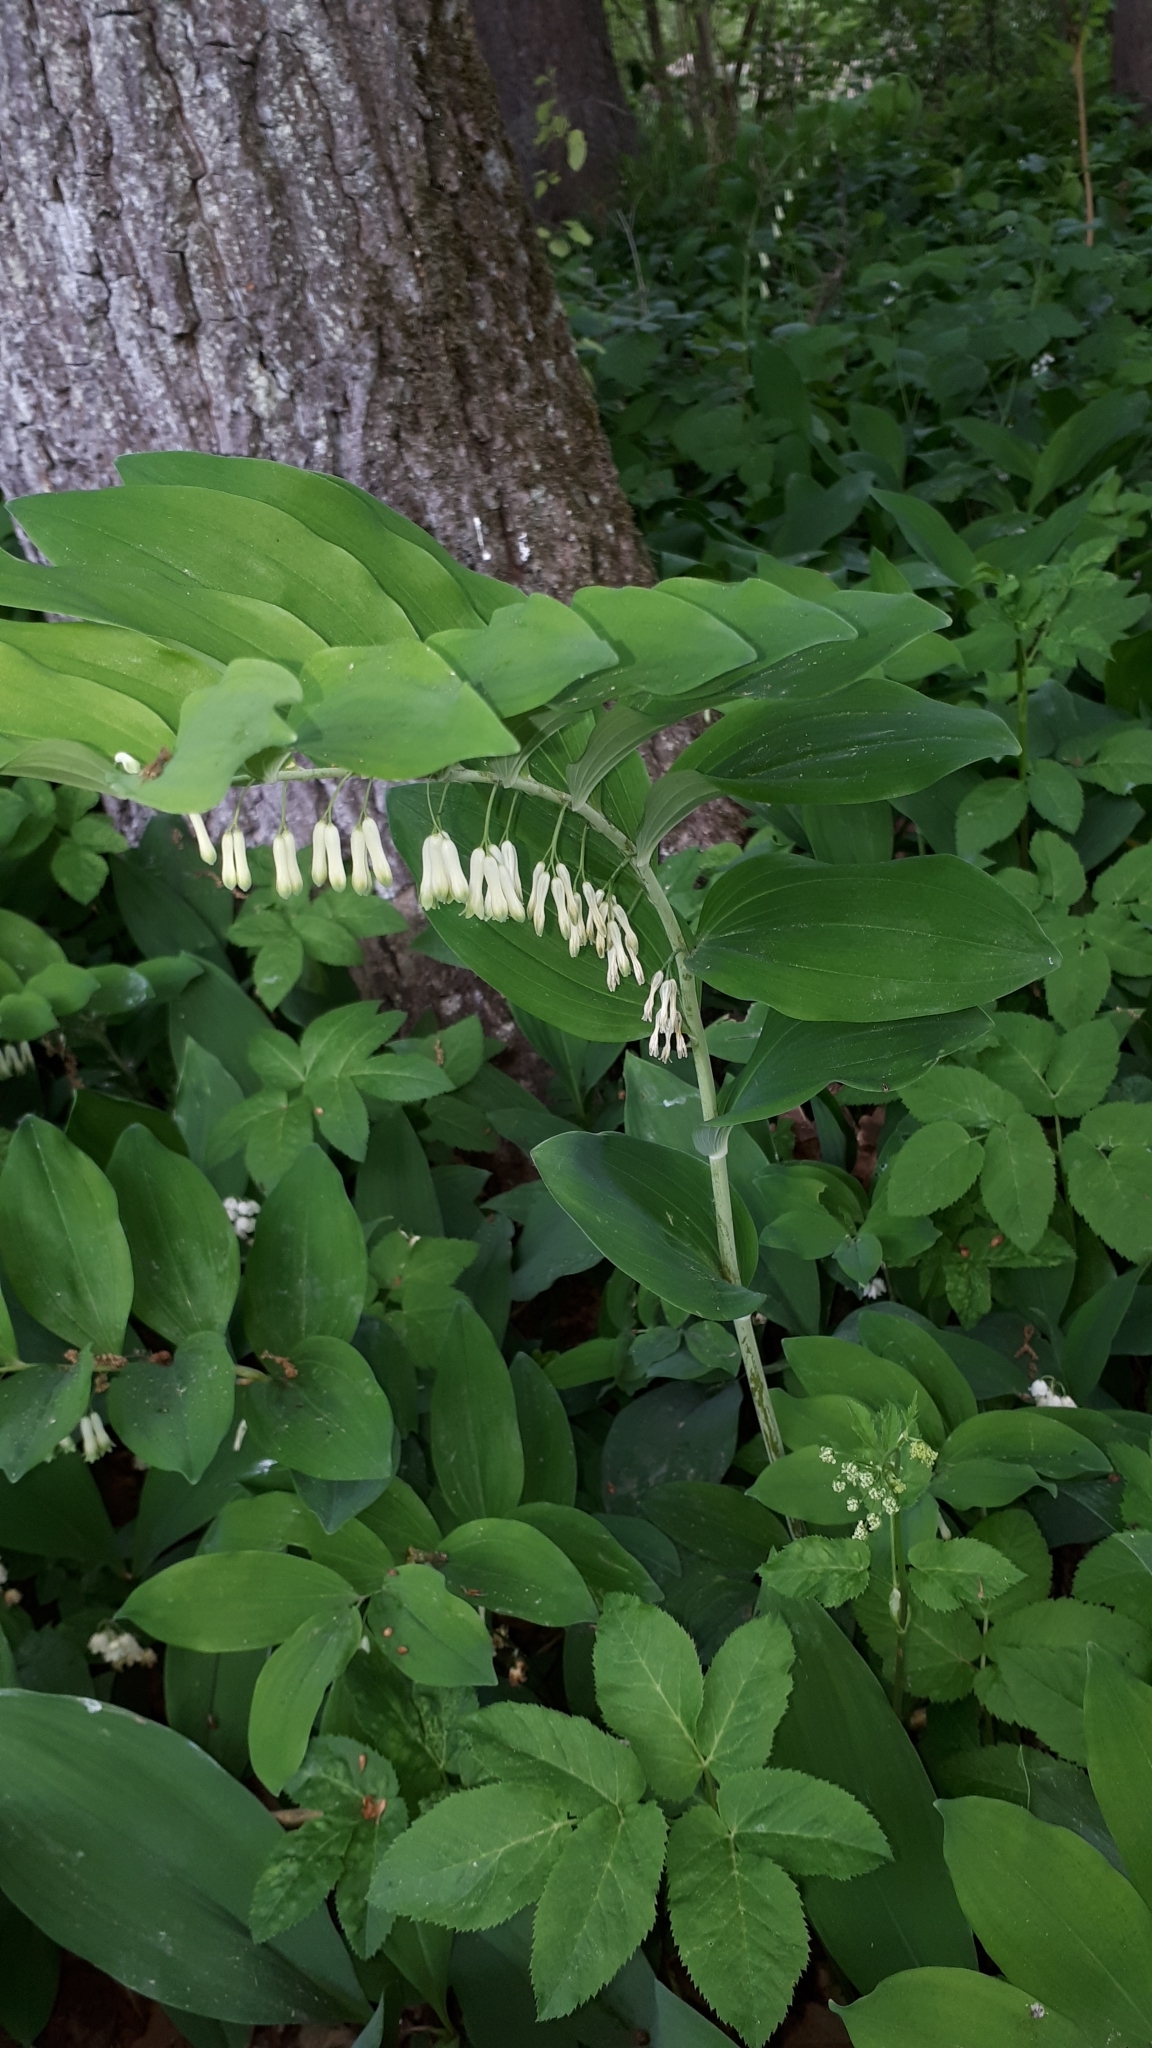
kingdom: Plantae
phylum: Tracheophyta
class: Liliopsida
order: Asparagales
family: Asparagaceae
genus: Polygonatum
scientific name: Polygonatum multiflorum
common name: Solomon's-seal
